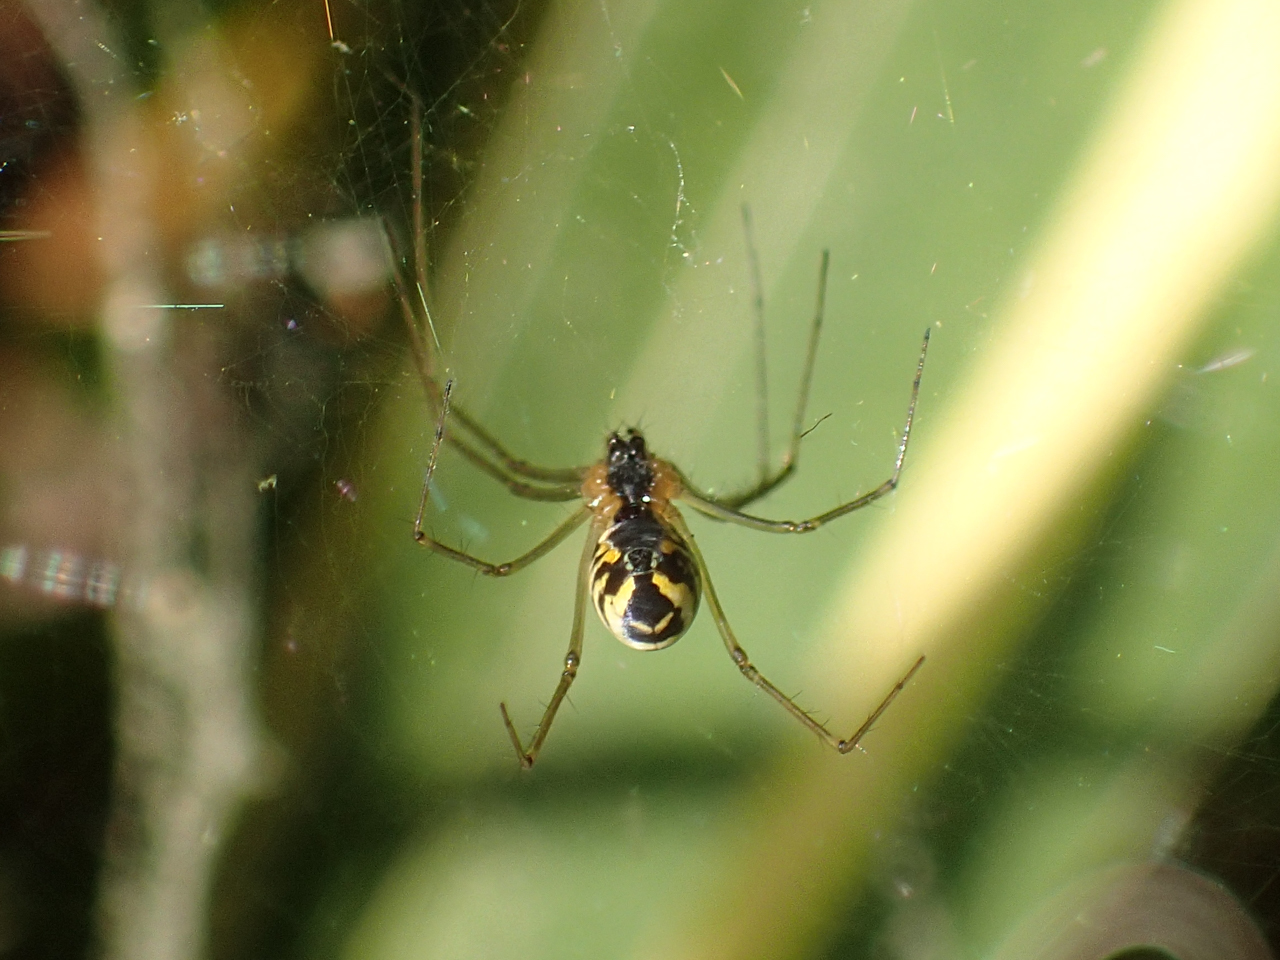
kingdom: Animalia
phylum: Arthropoda
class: Arachnida
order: Araneae
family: Linyphiidae
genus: Neriene
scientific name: Neriene radiata
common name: Filmy dome spider
